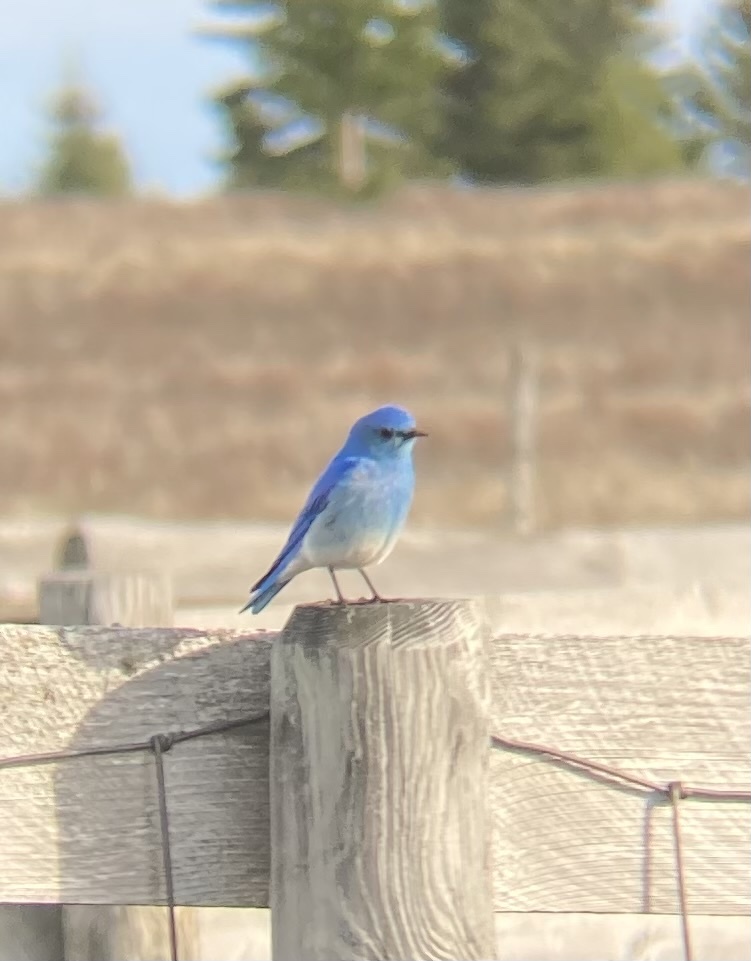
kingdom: Animalia
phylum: Chordata
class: Aves
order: Passeriformes
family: Turdidae
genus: Sialia
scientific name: Sialia currucoides
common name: Mountain bluebird
